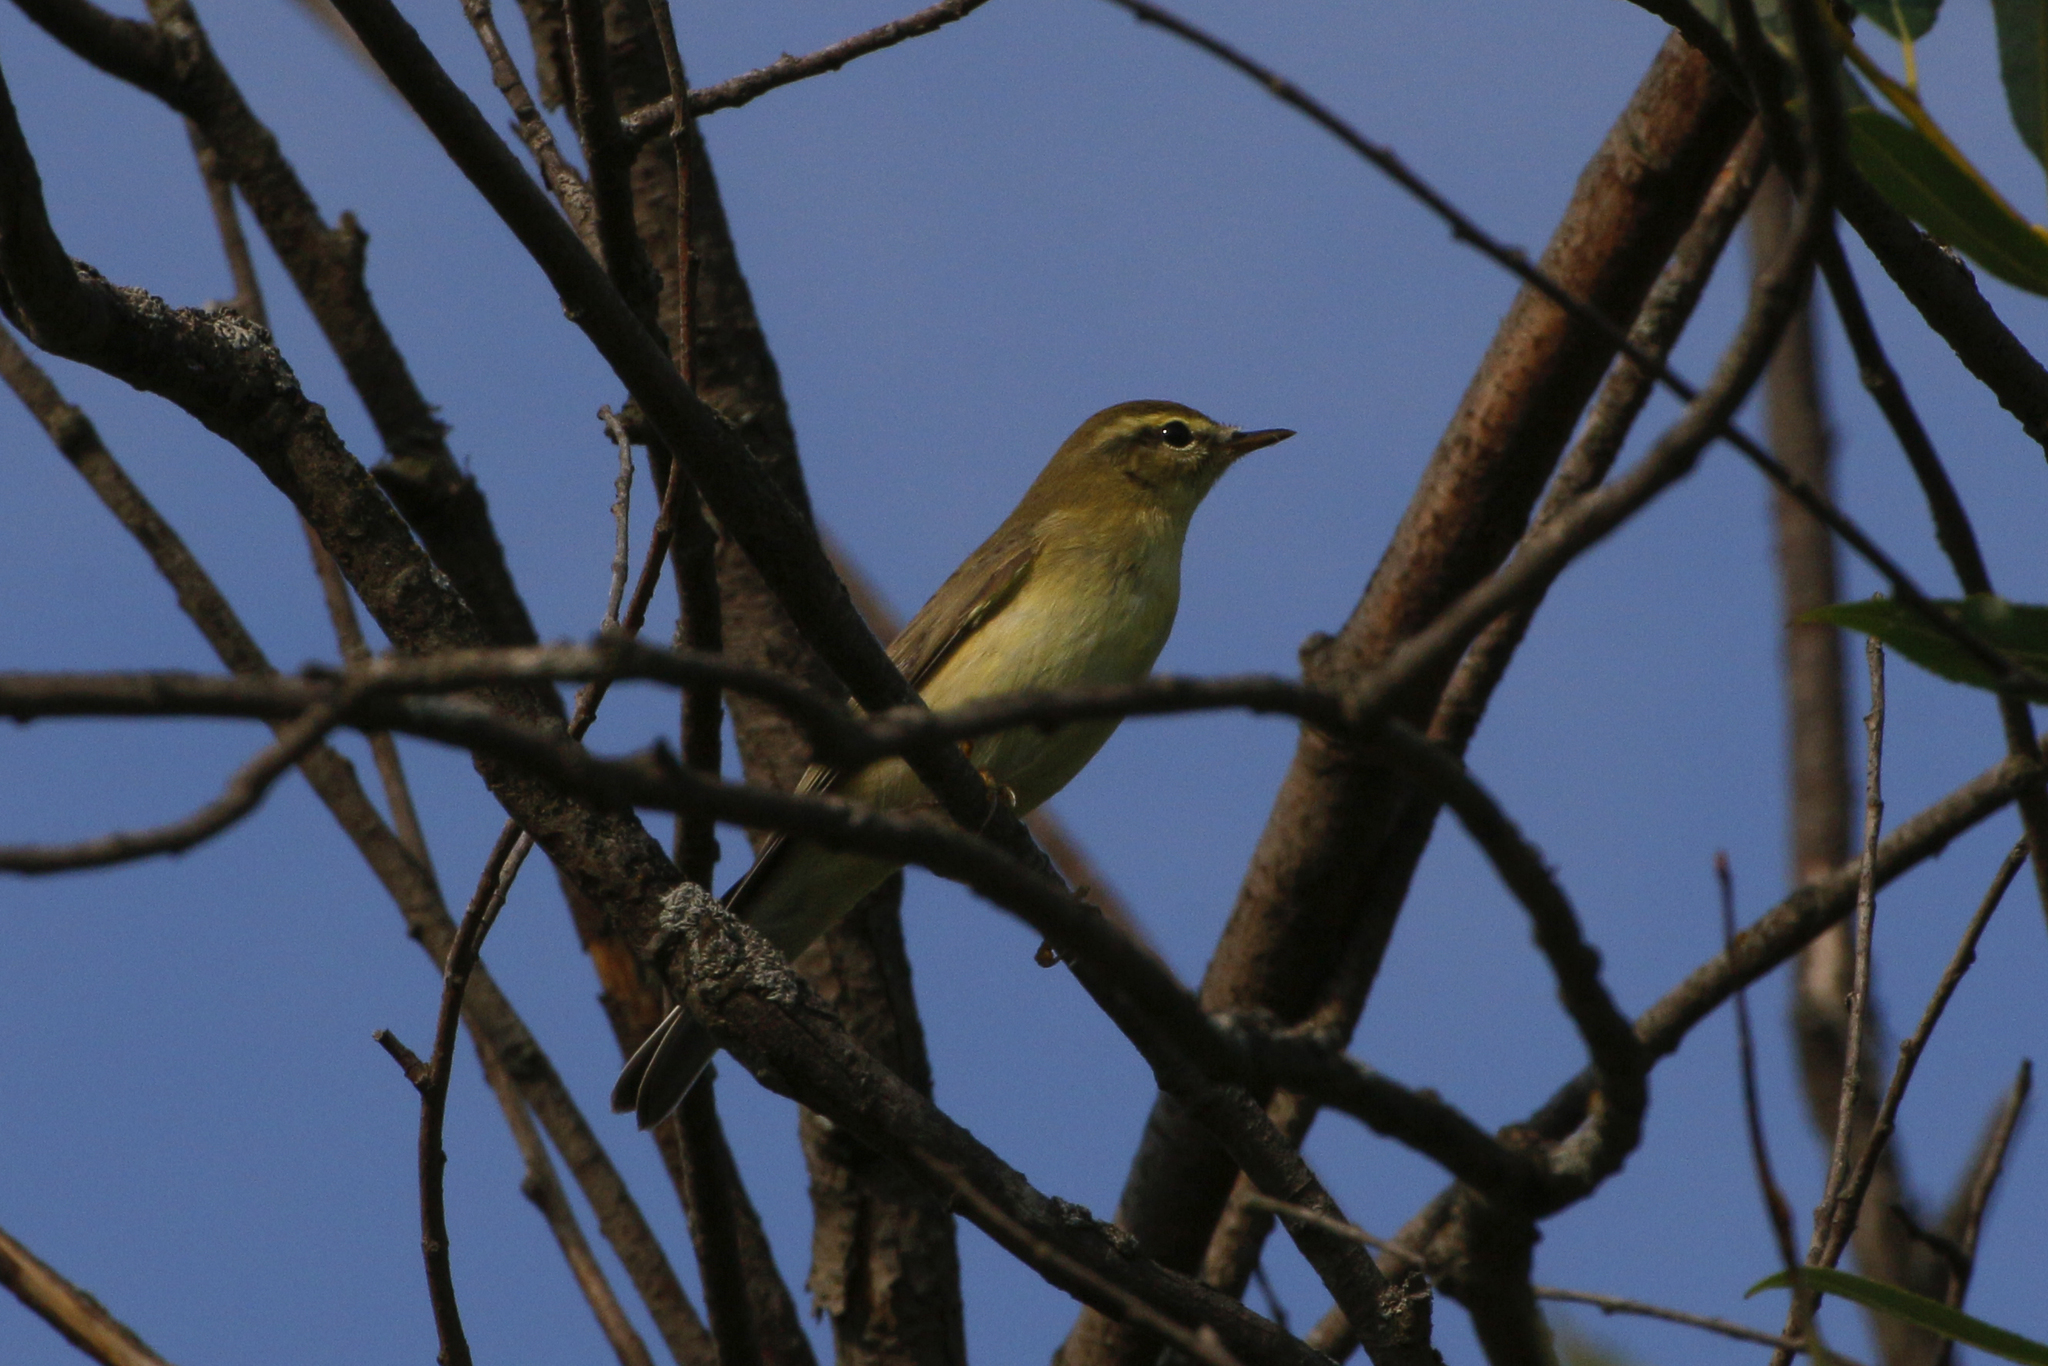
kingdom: Animalia
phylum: Chordata
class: Aves
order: Passeriformes
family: Phylloscopidae
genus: Phylloscopus
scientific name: Phylloscopus trochilus
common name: Willow warbler
